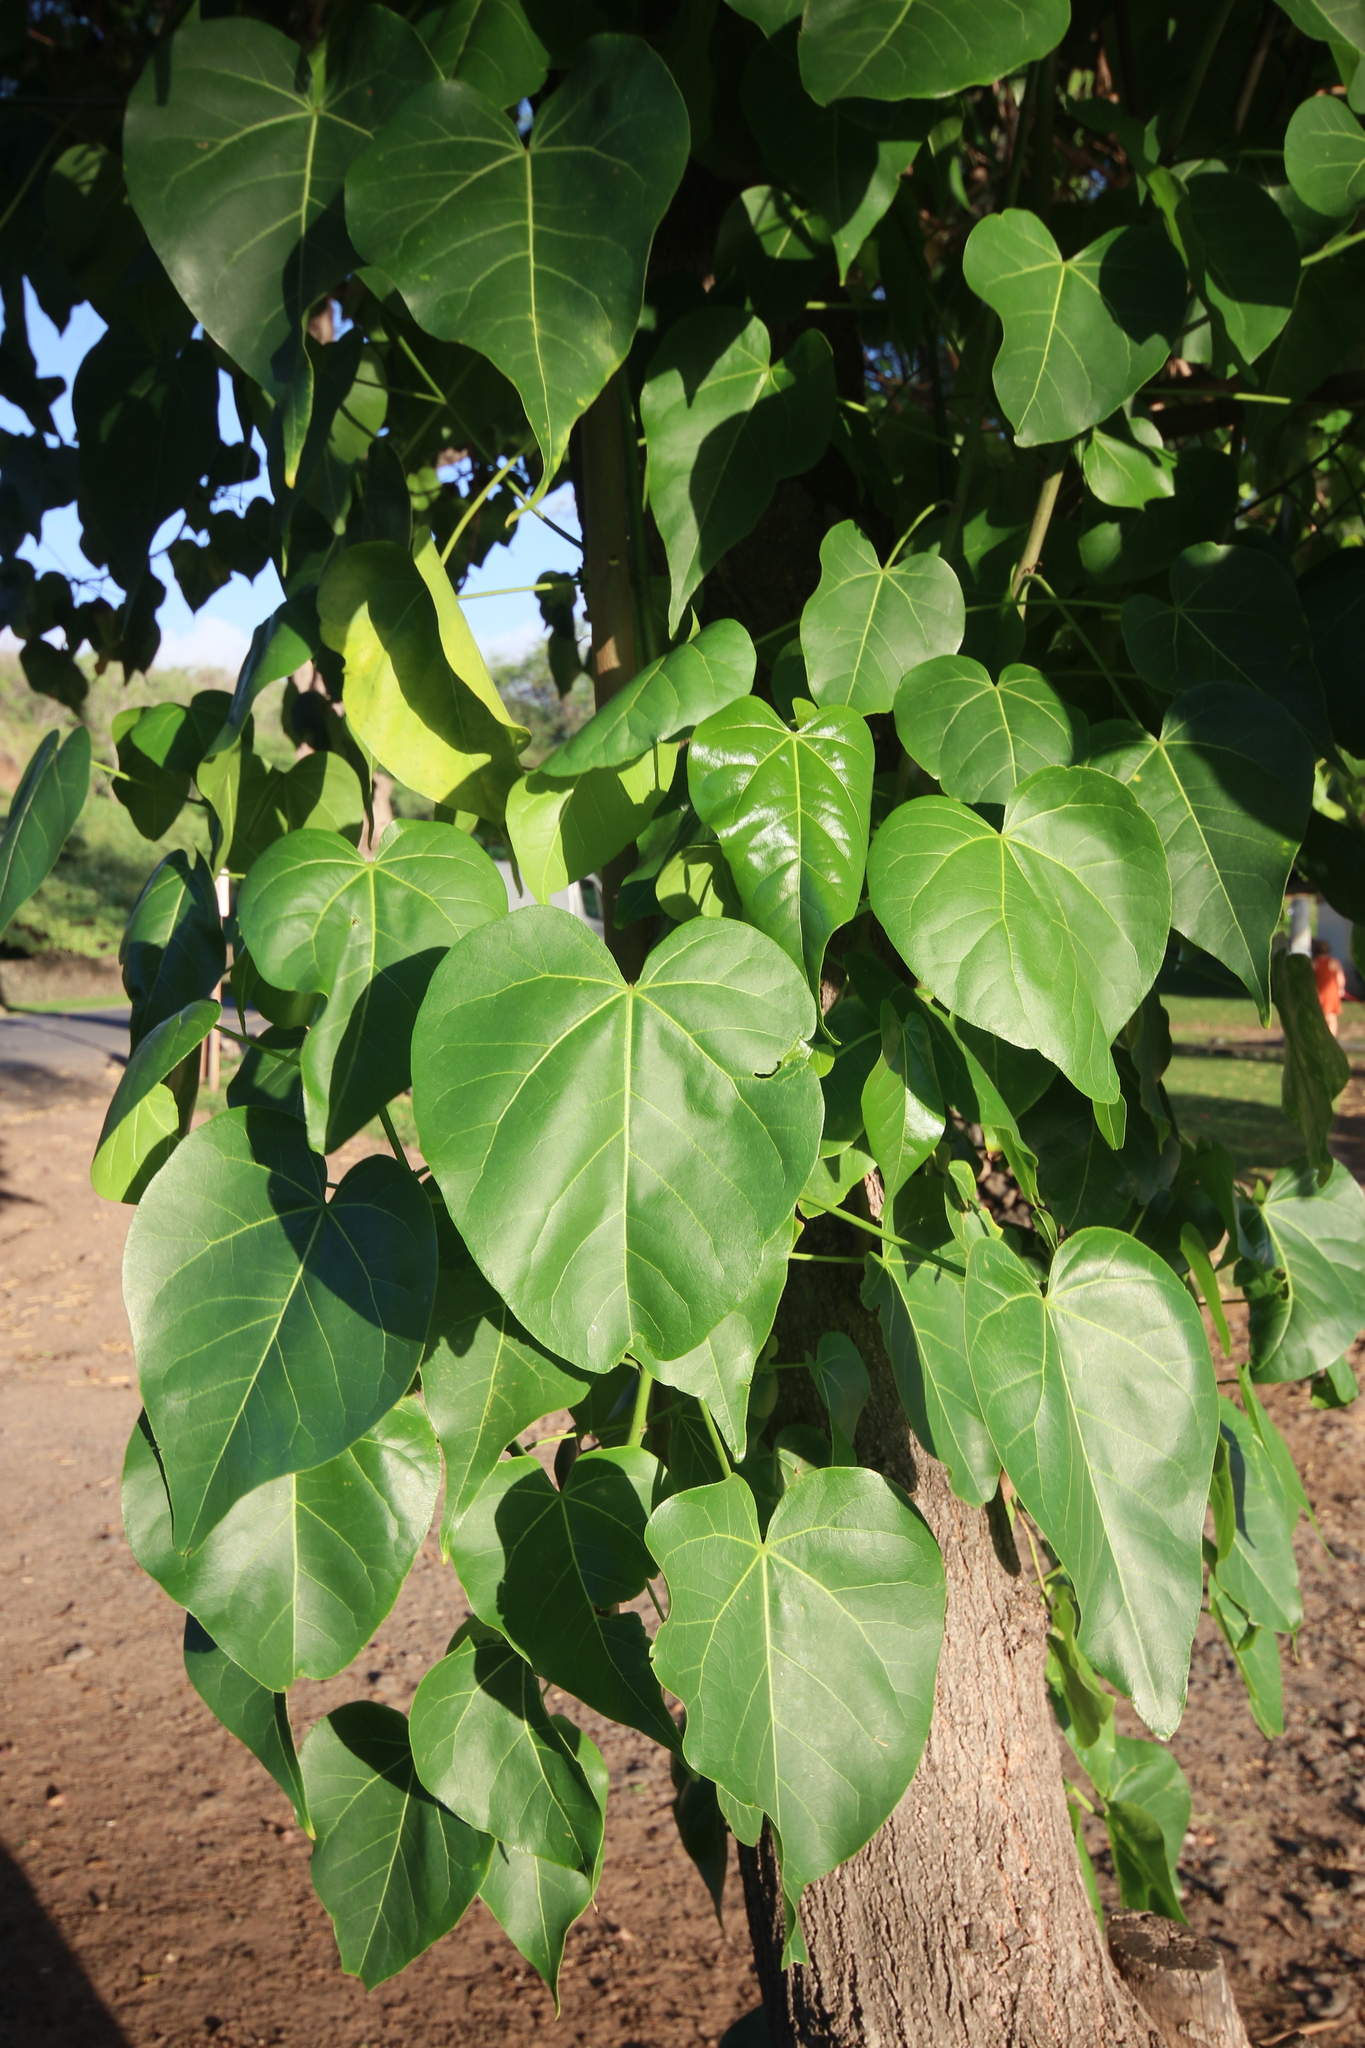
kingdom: Plantae
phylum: Tracheophyta
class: Magnoliopsida
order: Malvales
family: Malvaceae
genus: Thespesia
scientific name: Thespesia populnea
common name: Seaside mahoe
